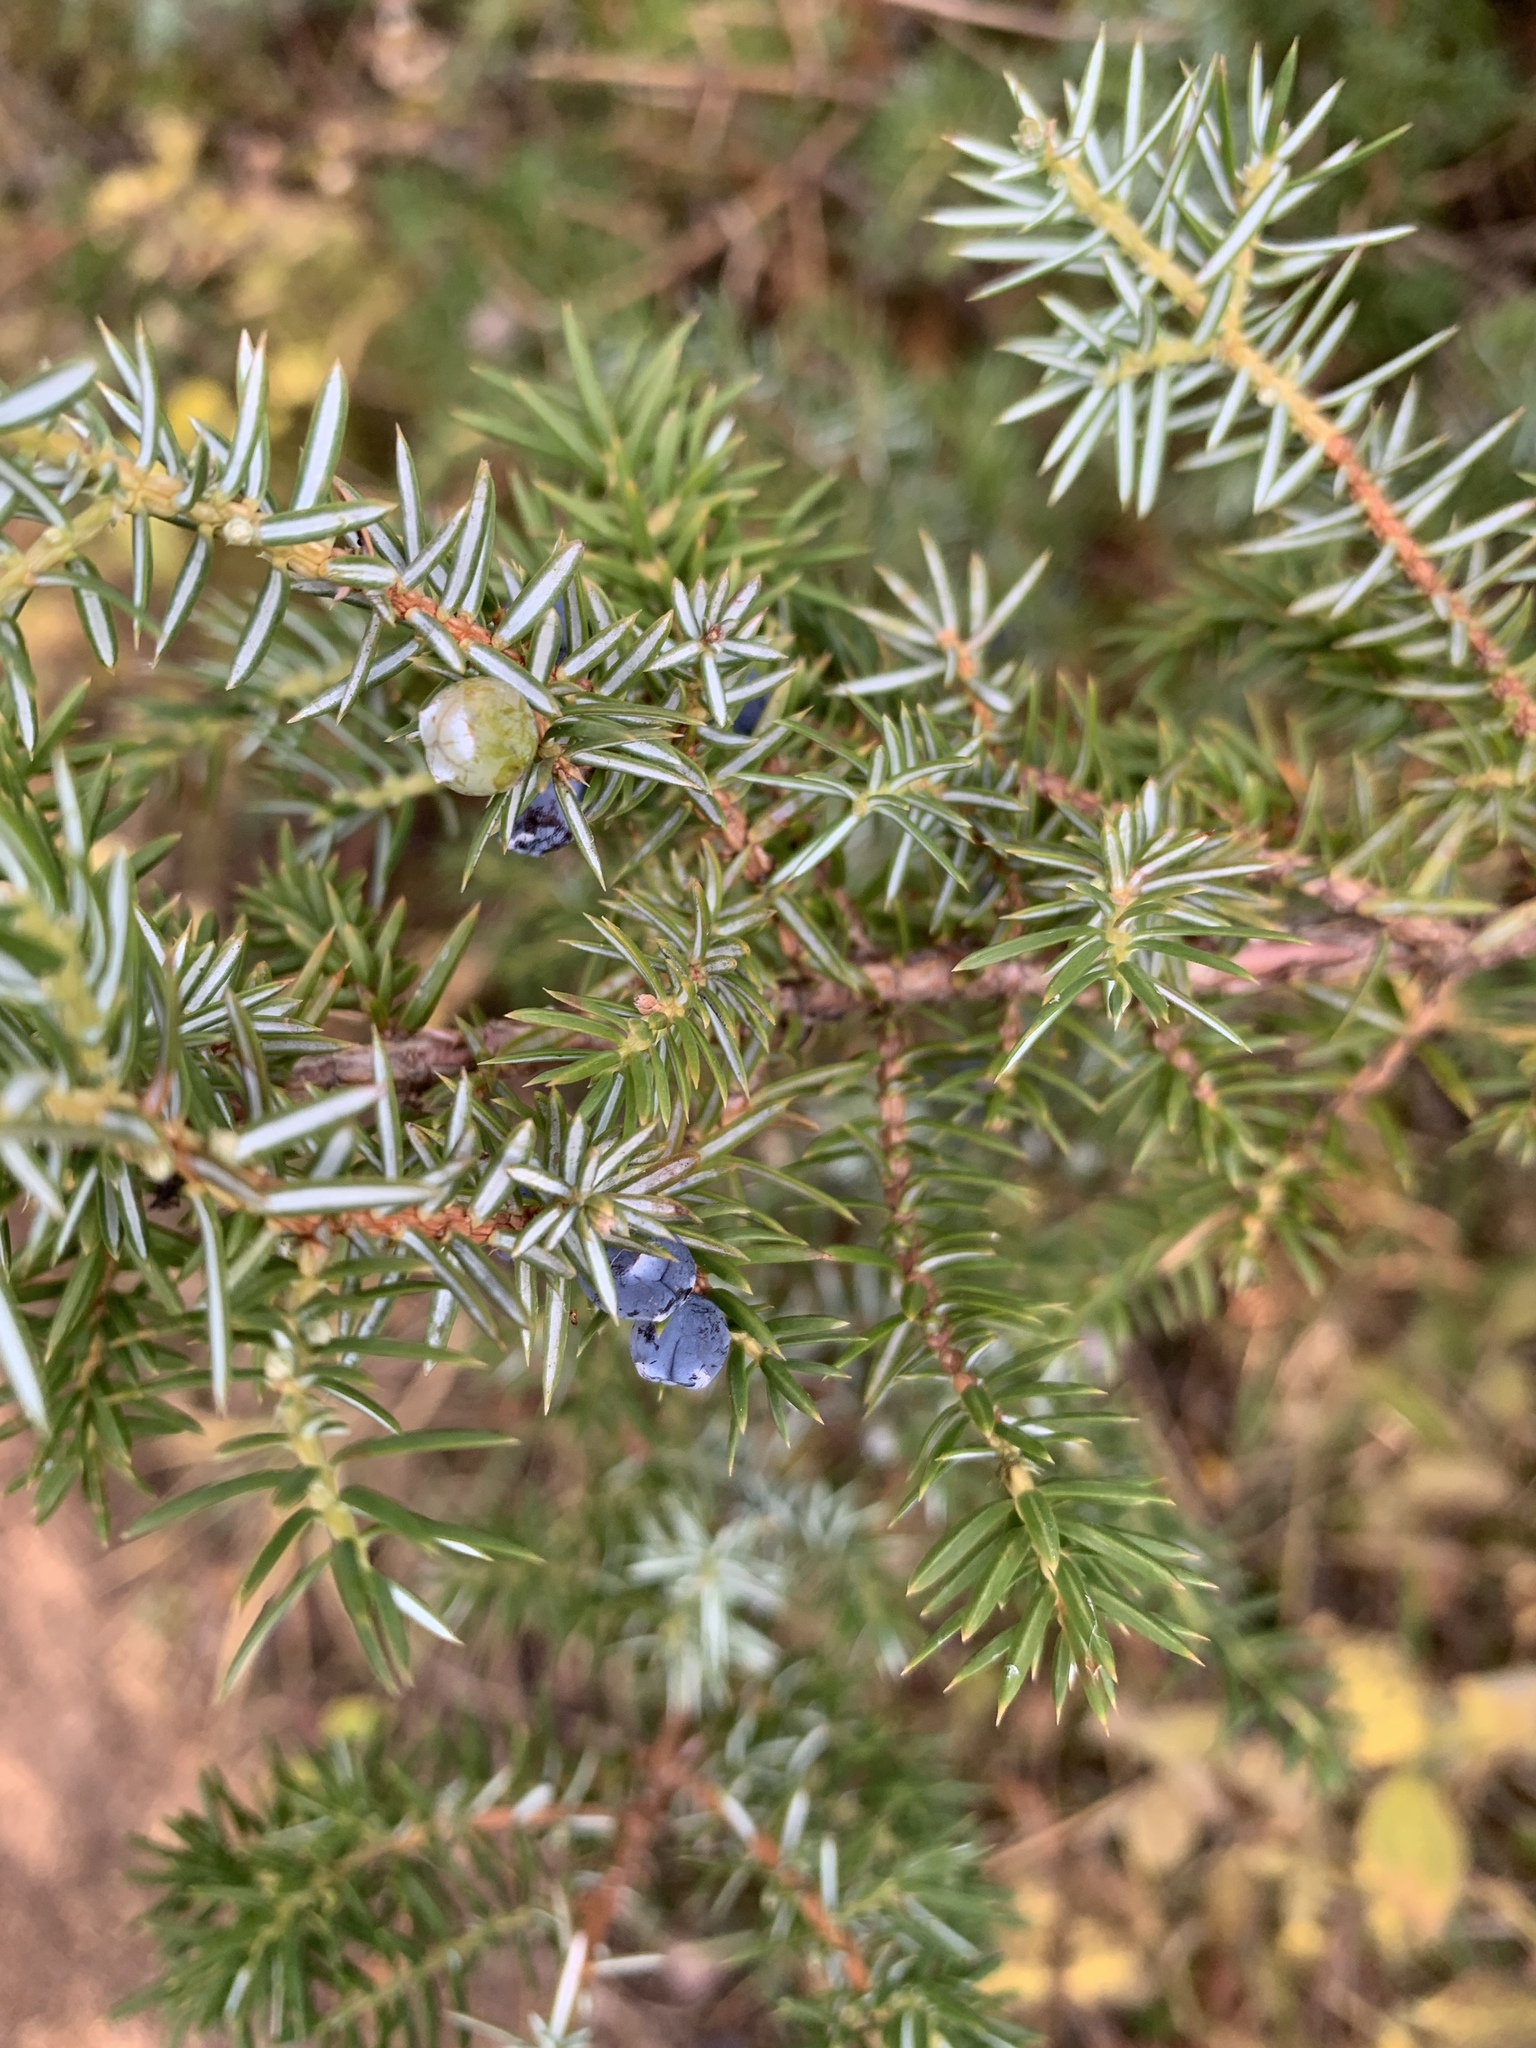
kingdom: Plantae
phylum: Tracheophyta
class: Pinopsida
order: Pinales
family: Cupressaceae
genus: Juniperus
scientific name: Juniperus communis
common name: Common juniper
